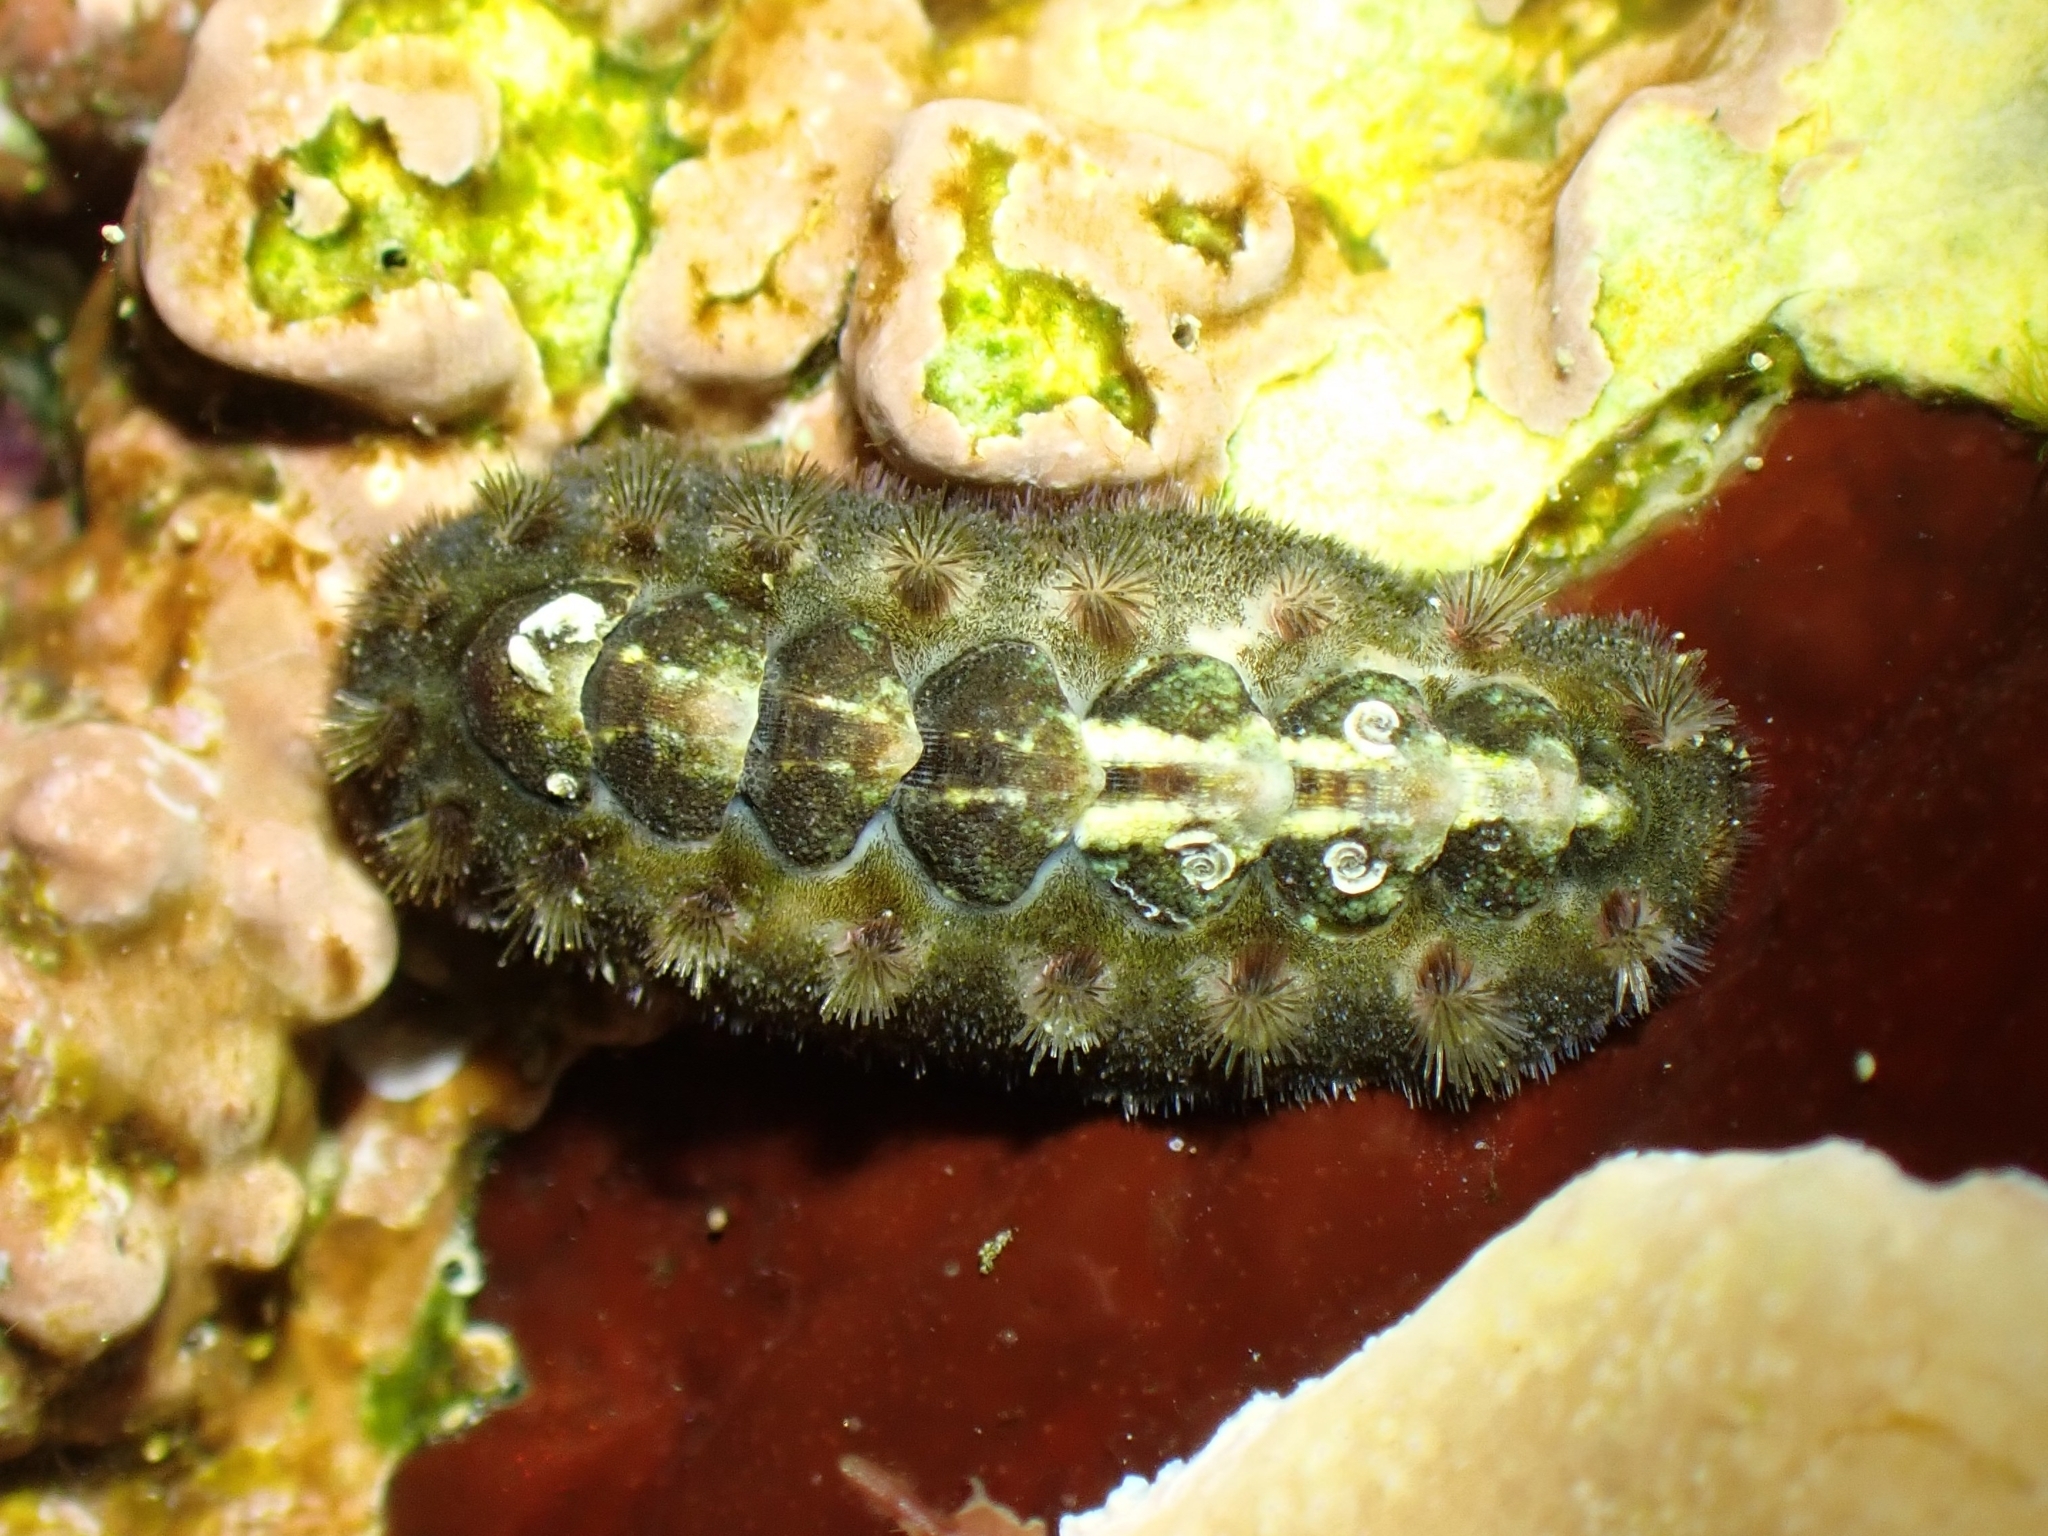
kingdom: Animalia
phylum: Mollusca
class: Polyplacophora
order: Chitonida
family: Acanthochitonidae
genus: Acanthochitona
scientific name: Acanthochitona crinita
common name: Bristly mail chiton
